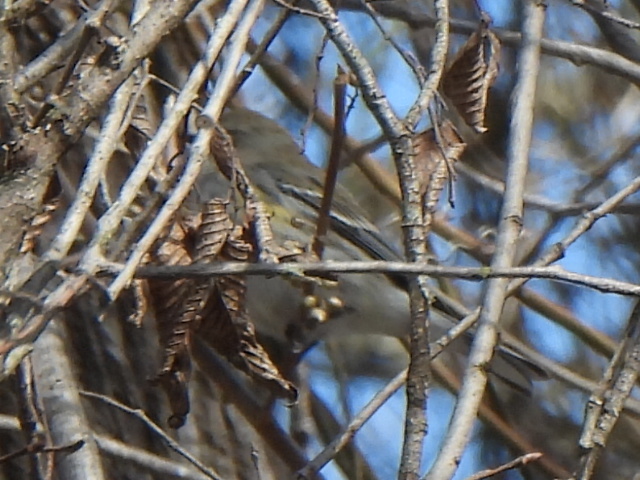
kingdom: Animalia
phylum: Chordata
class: Aves
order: Passeriformes
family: Parulidae
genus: Setophaga
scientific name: Setophaga coronata
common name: Myrtle warbler
